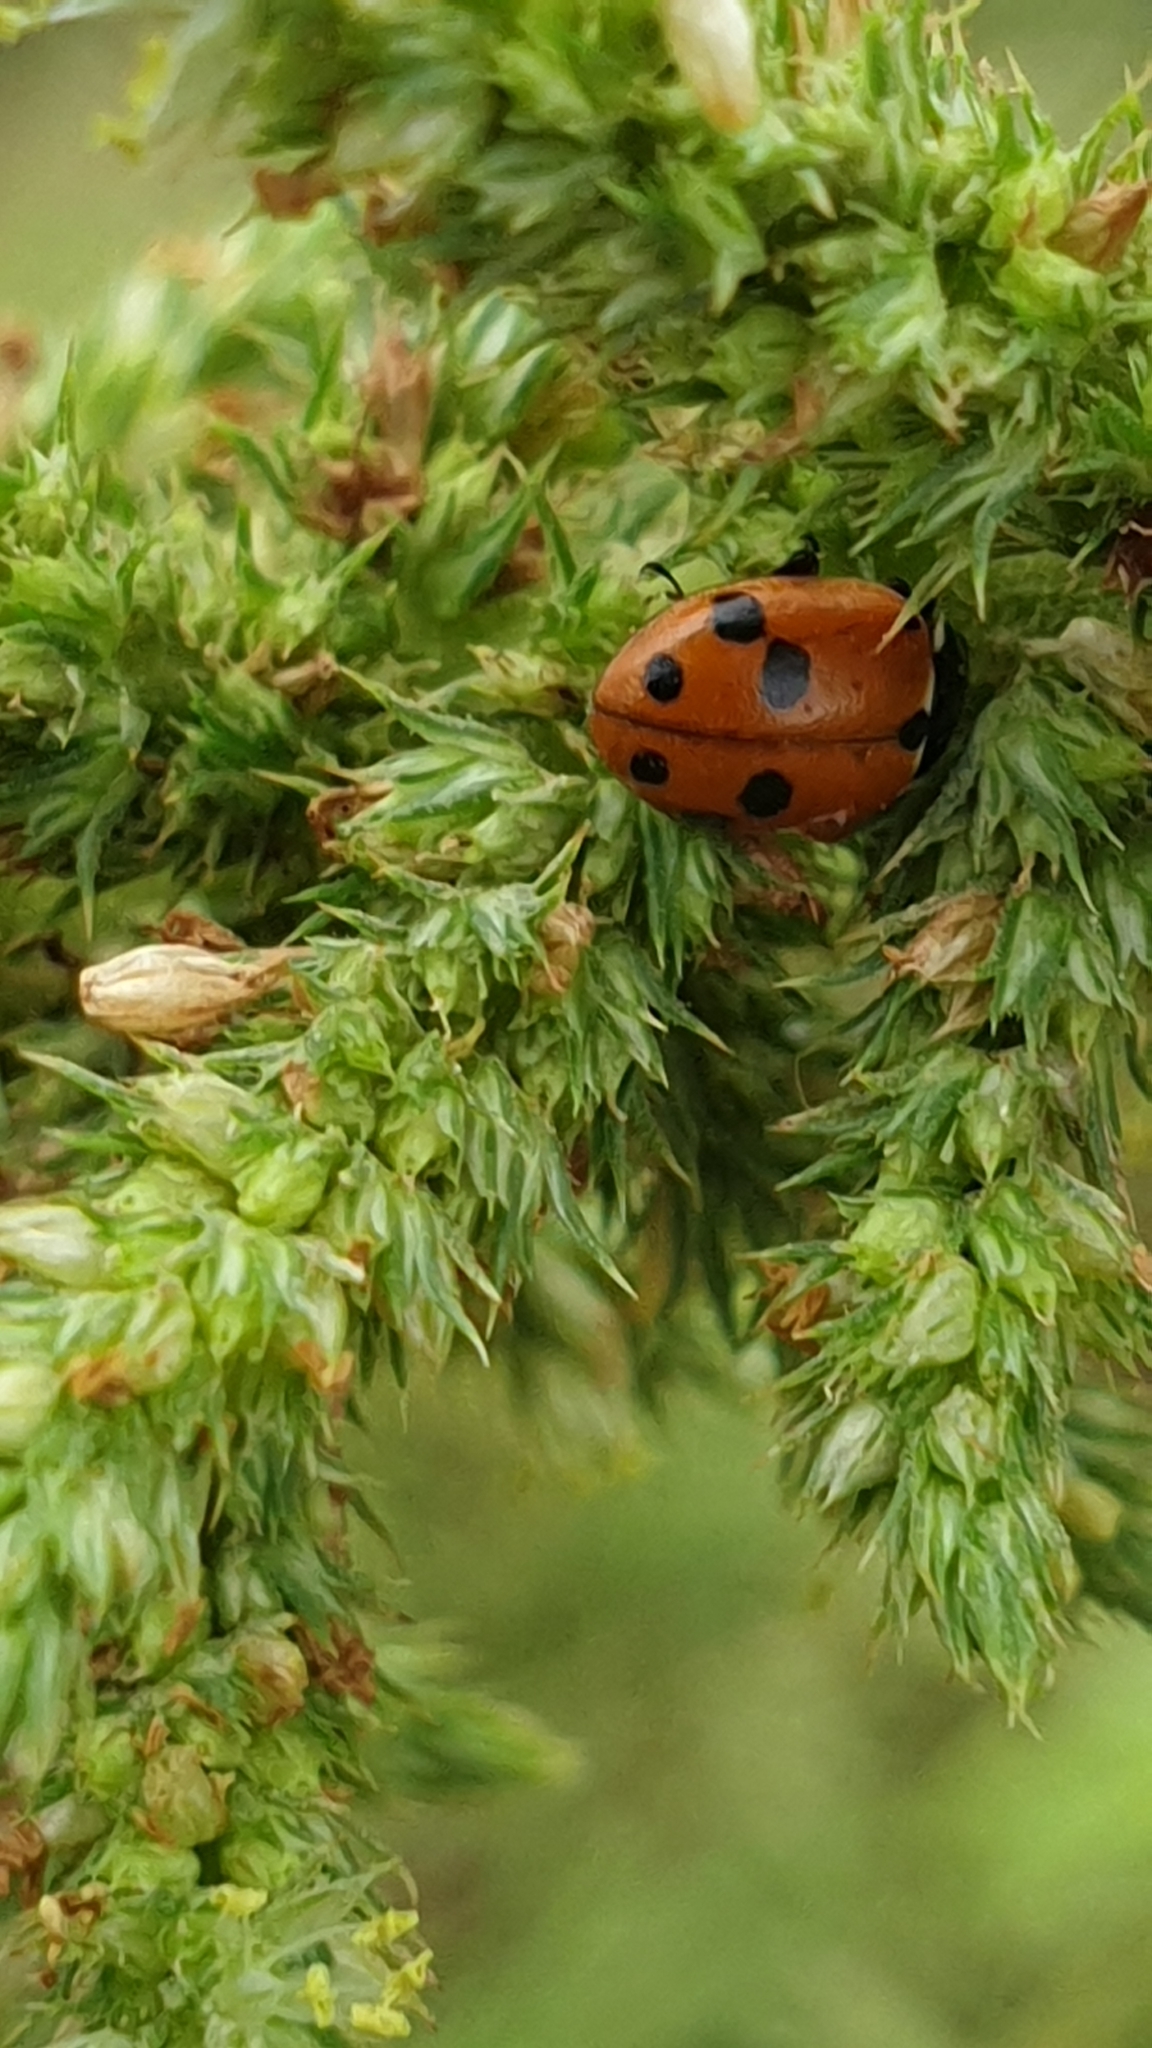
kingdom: Animalia
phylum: Arthropoda
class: Insecta
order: Coleoptera
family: Coccinellidae
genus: Hippodamia
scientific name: Hippodamia variegata
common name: Ladybird beetle
